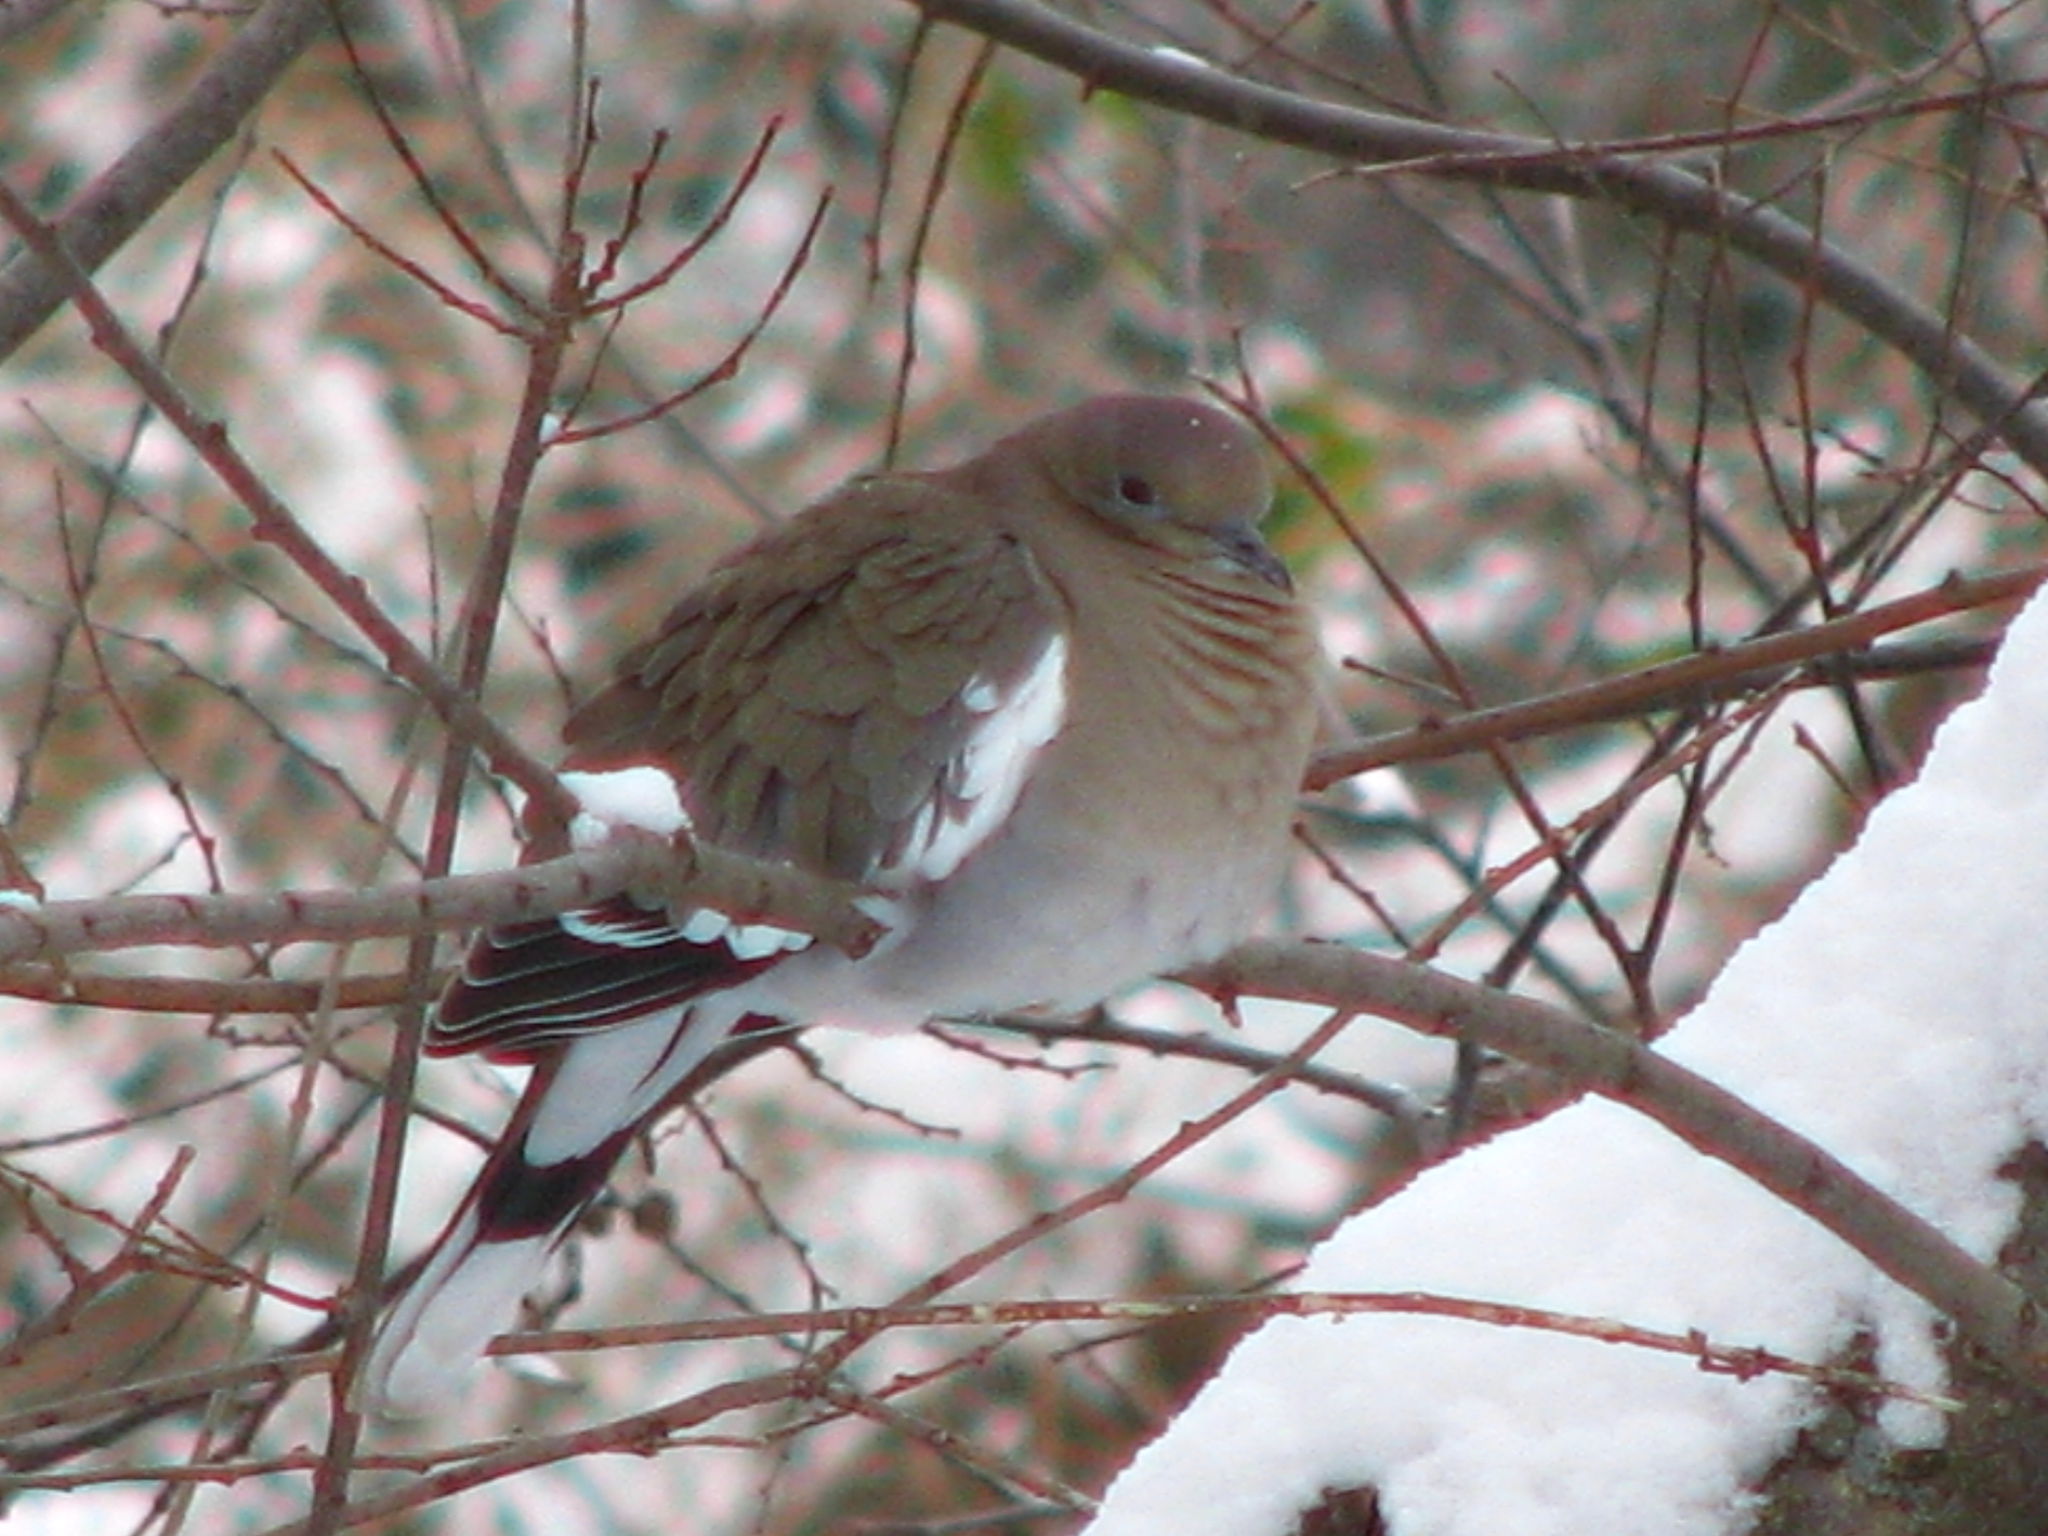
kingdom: Animalia
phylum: Chordata
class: Aves
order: Columbiformes
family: Columbidae
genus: Zenaida
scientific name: Zenaida asiatica
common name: White-winged dove
